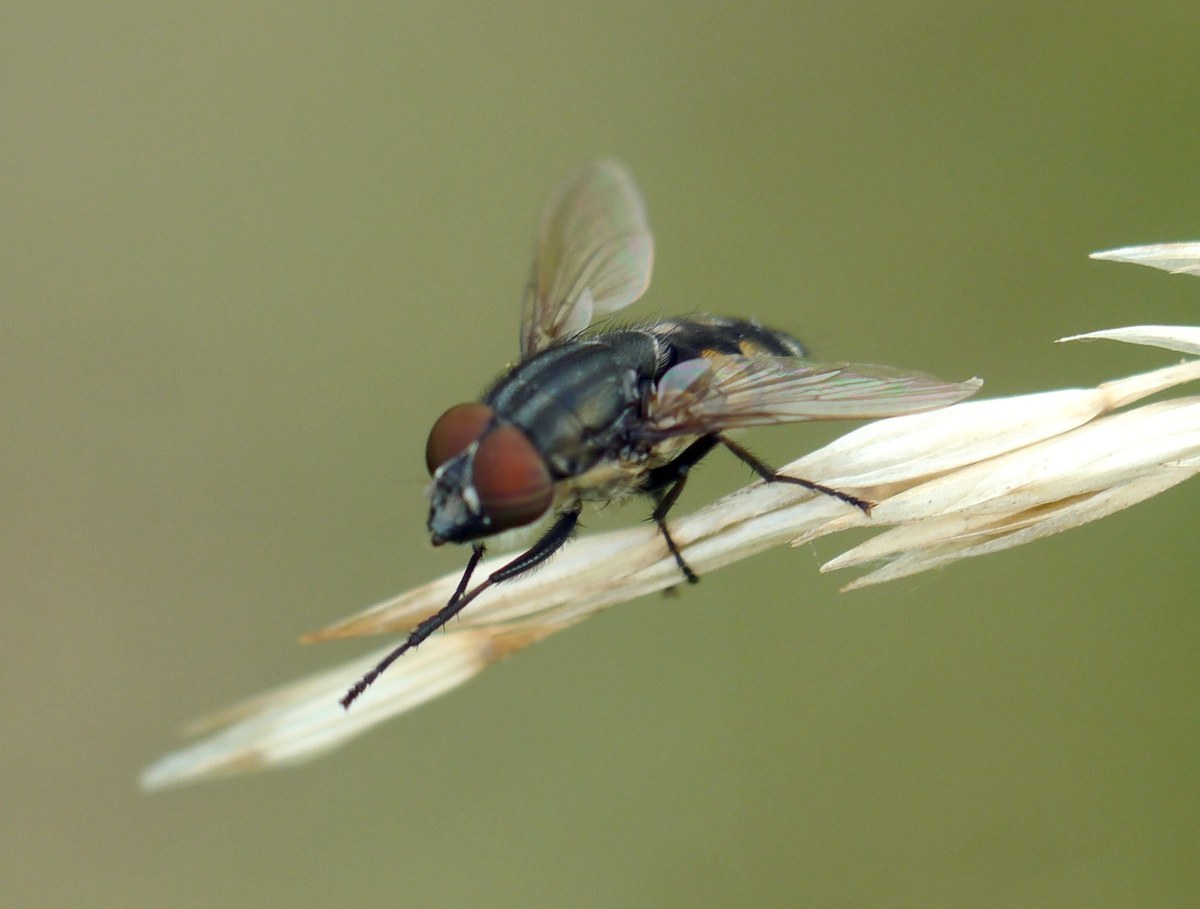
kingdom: Animalia
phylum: Arthropoda
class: Insecta
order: Diptera
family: Calliphoridae
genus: Stomorhina
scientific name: Stomorhina lunata
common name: Locust blowfly
